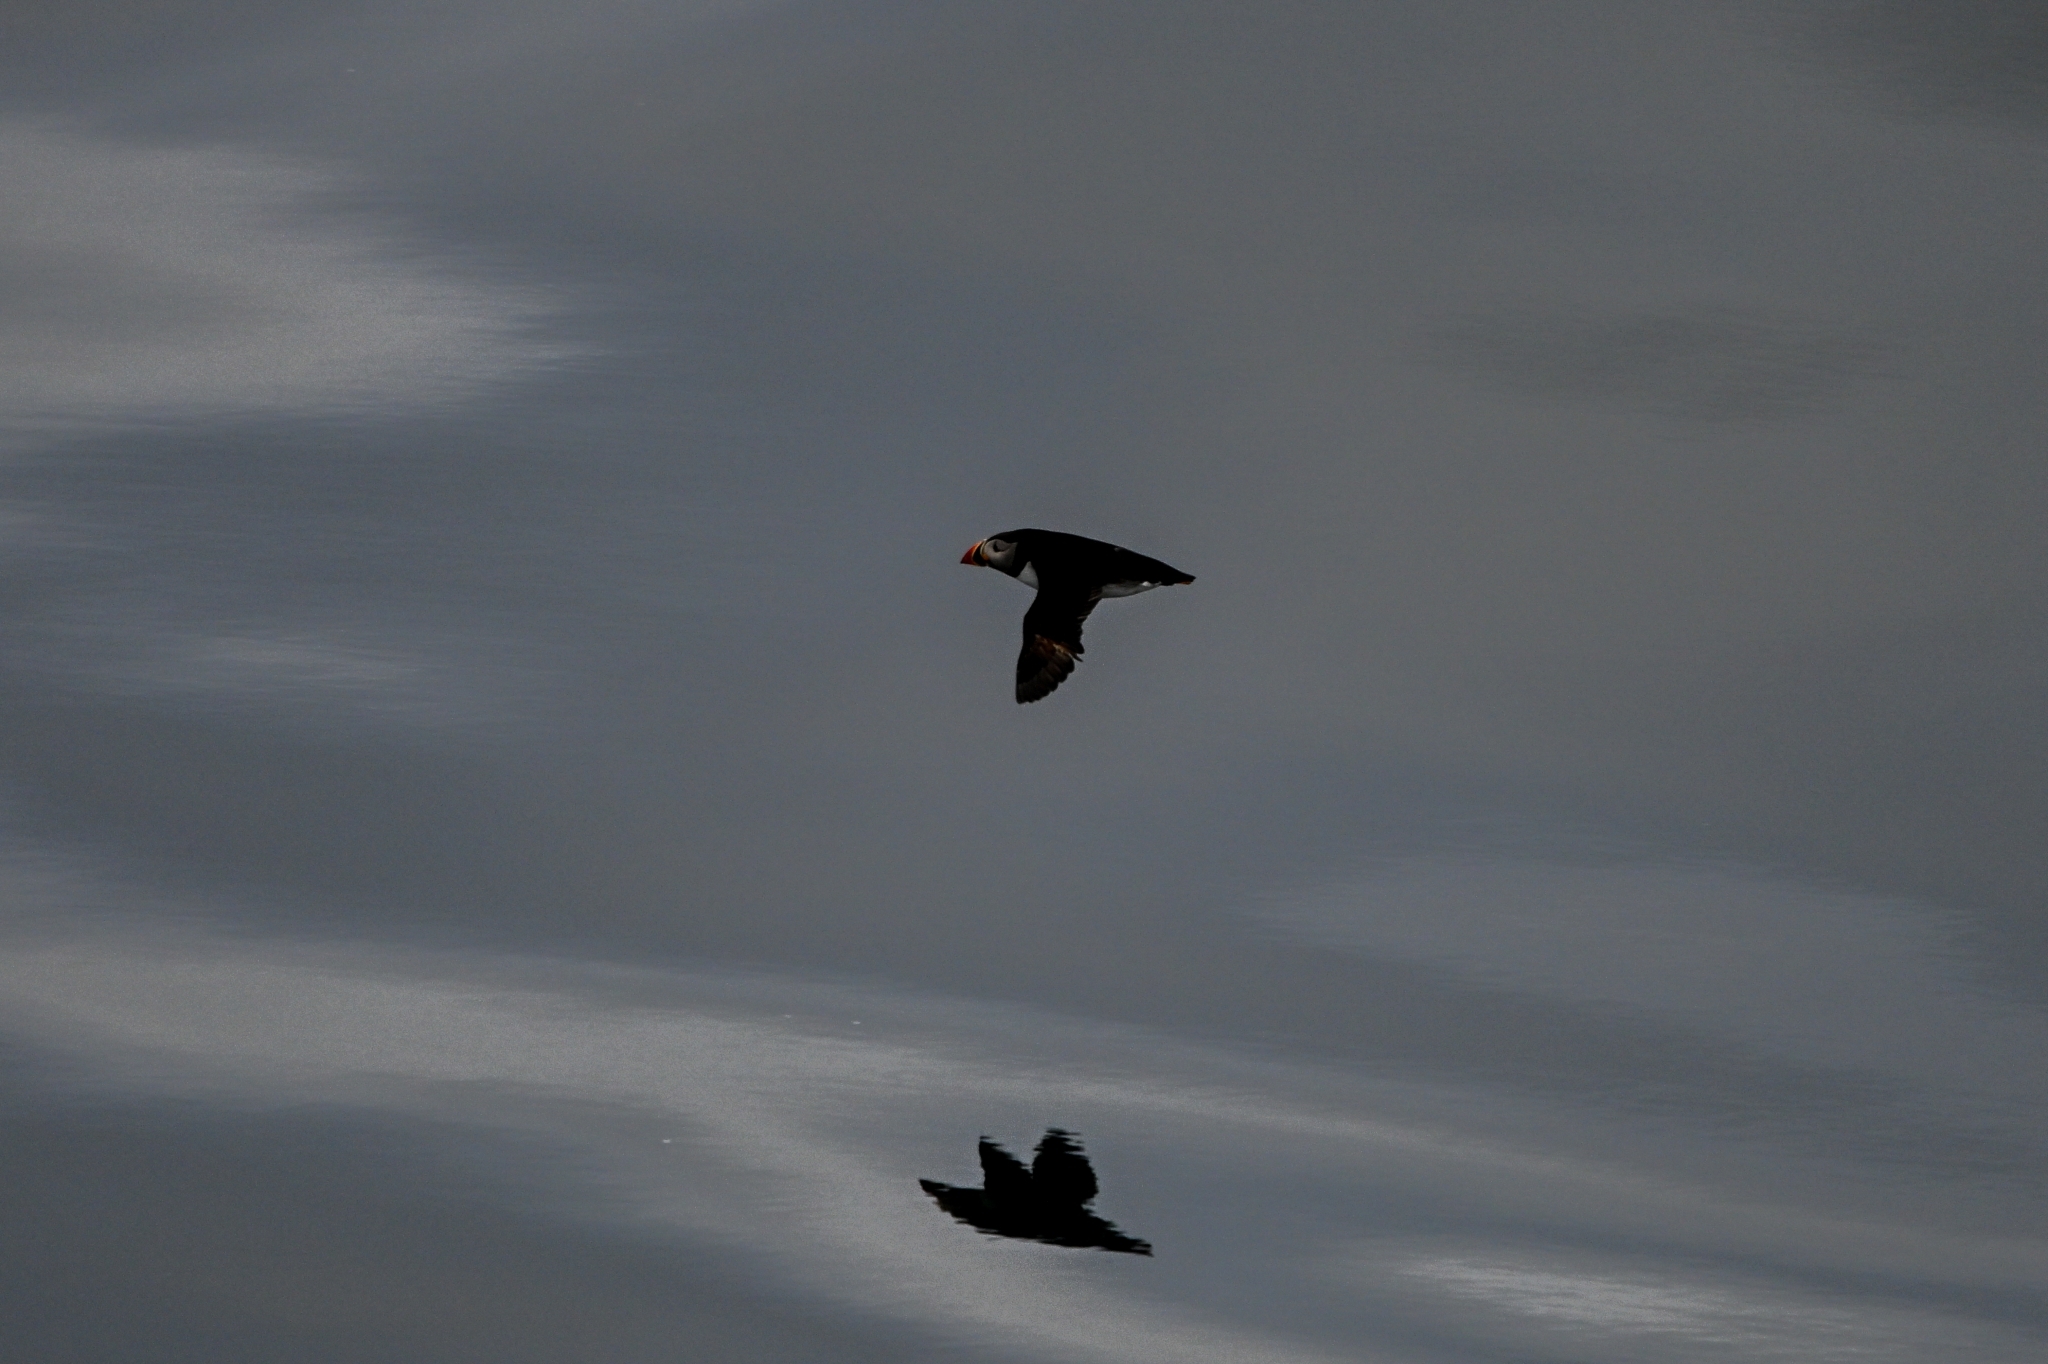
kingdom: Animalia
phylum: Chordata
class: Aves
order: Charadriiformes
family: Alcidae
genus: Fratercula
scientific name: Fratercula arctica
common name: Atlantic puffin
